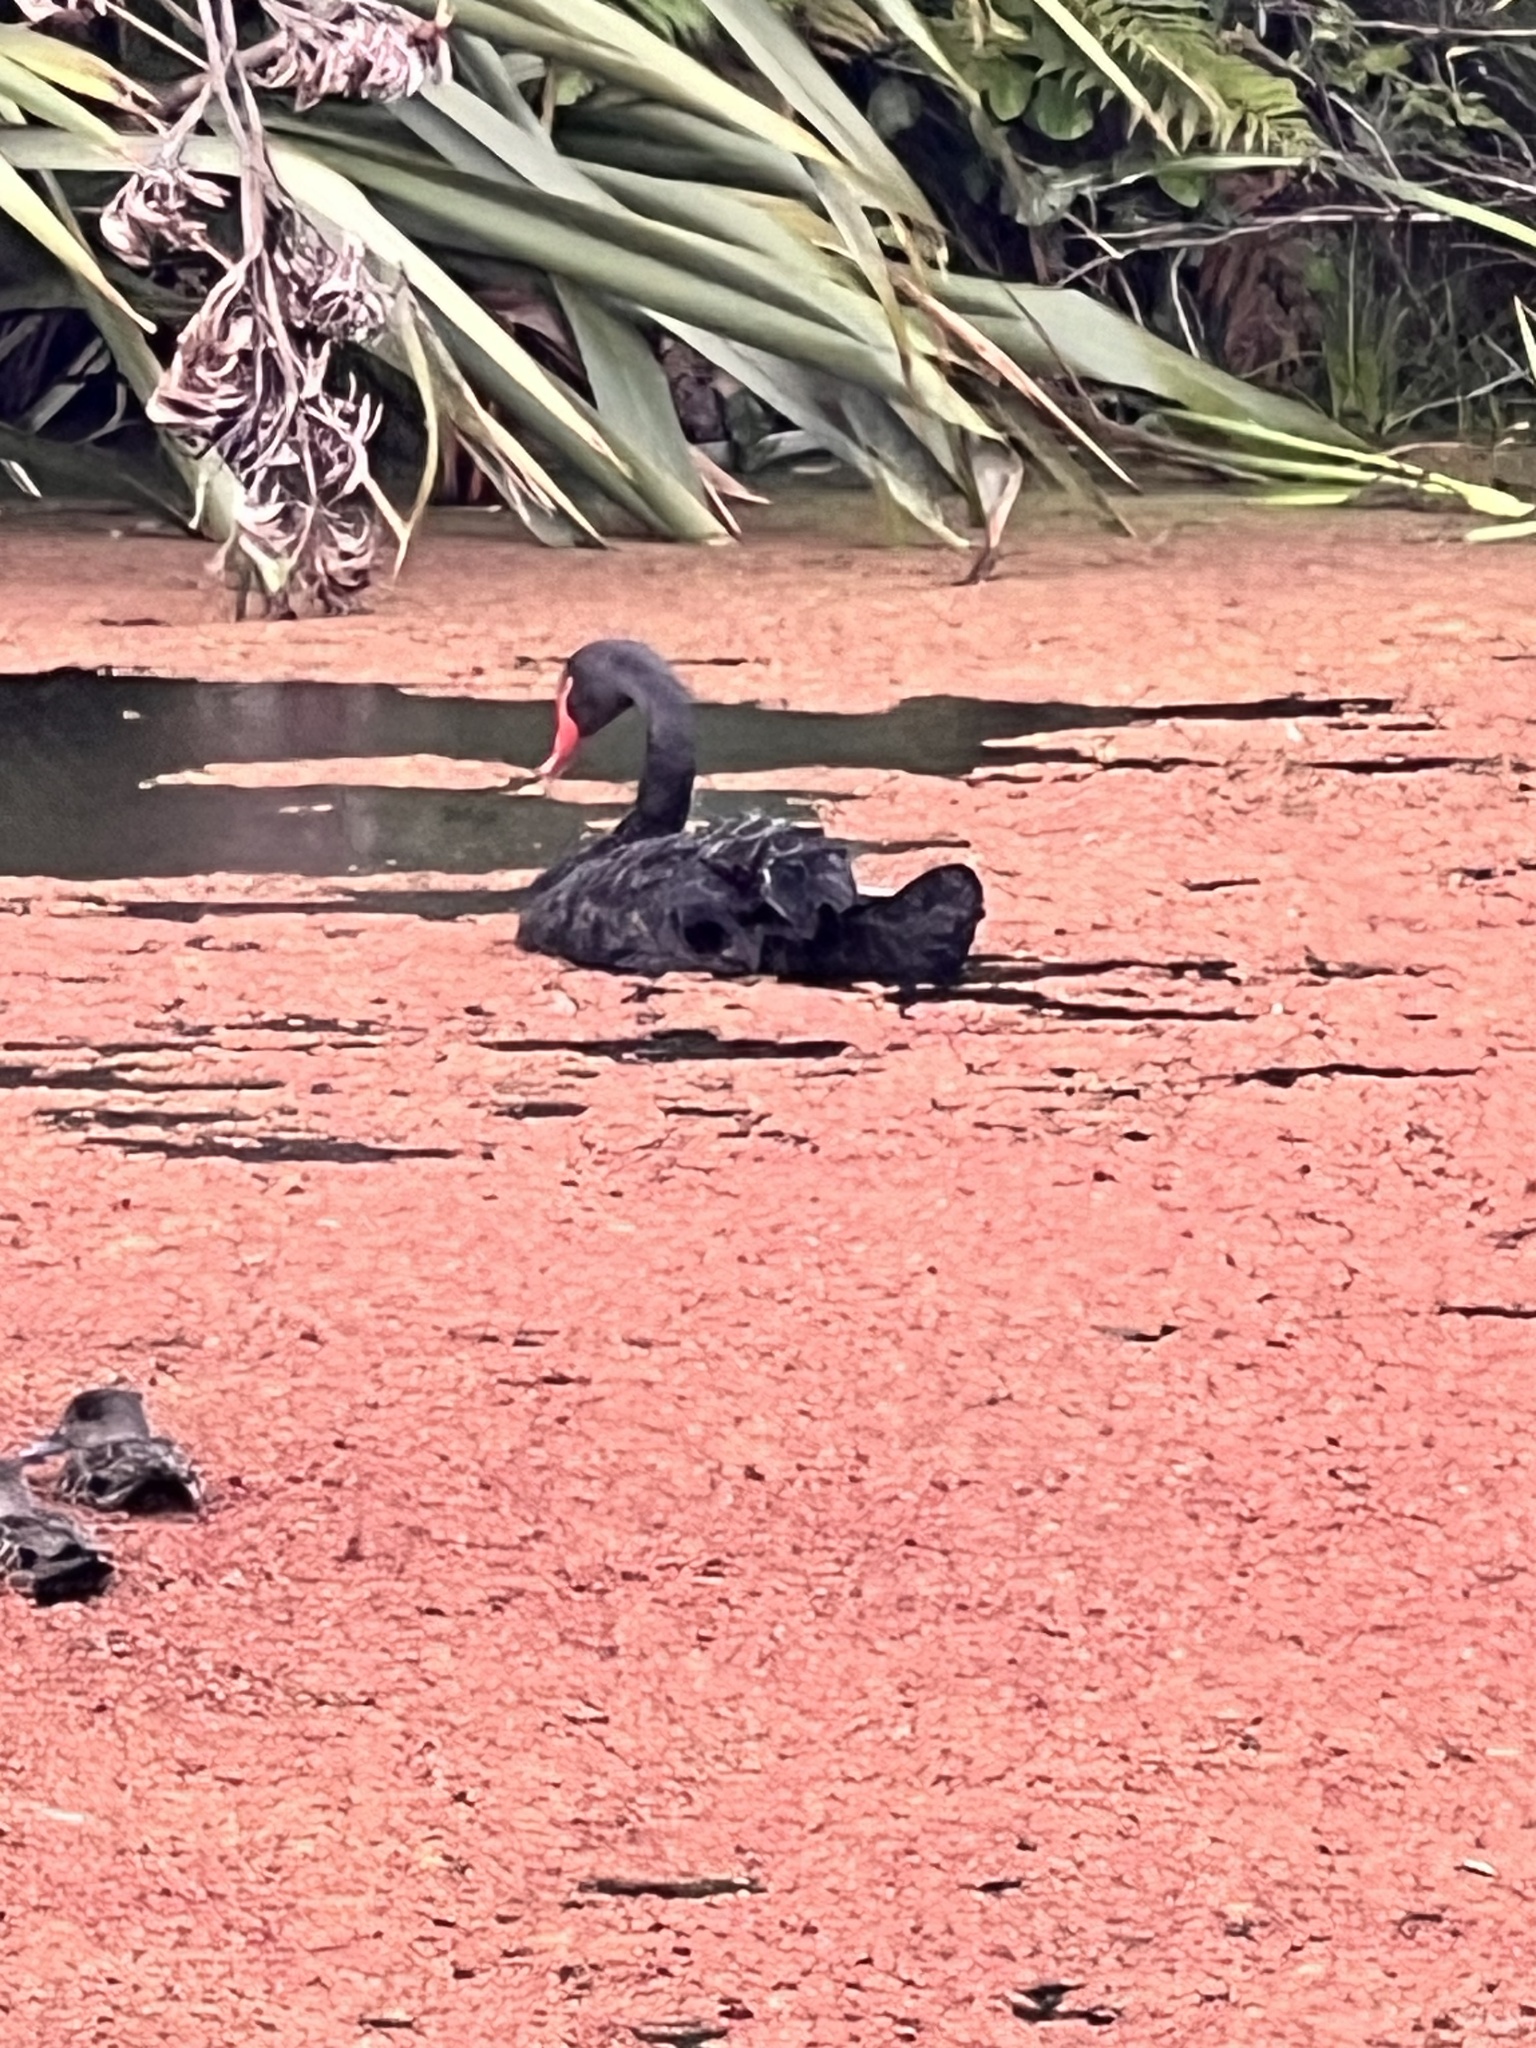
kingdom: Animalia
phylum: Chordata
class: Aves
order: Anseriformes
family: Anatidae
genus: Cygnus
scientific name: Cygnus atratus
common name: Black swan
